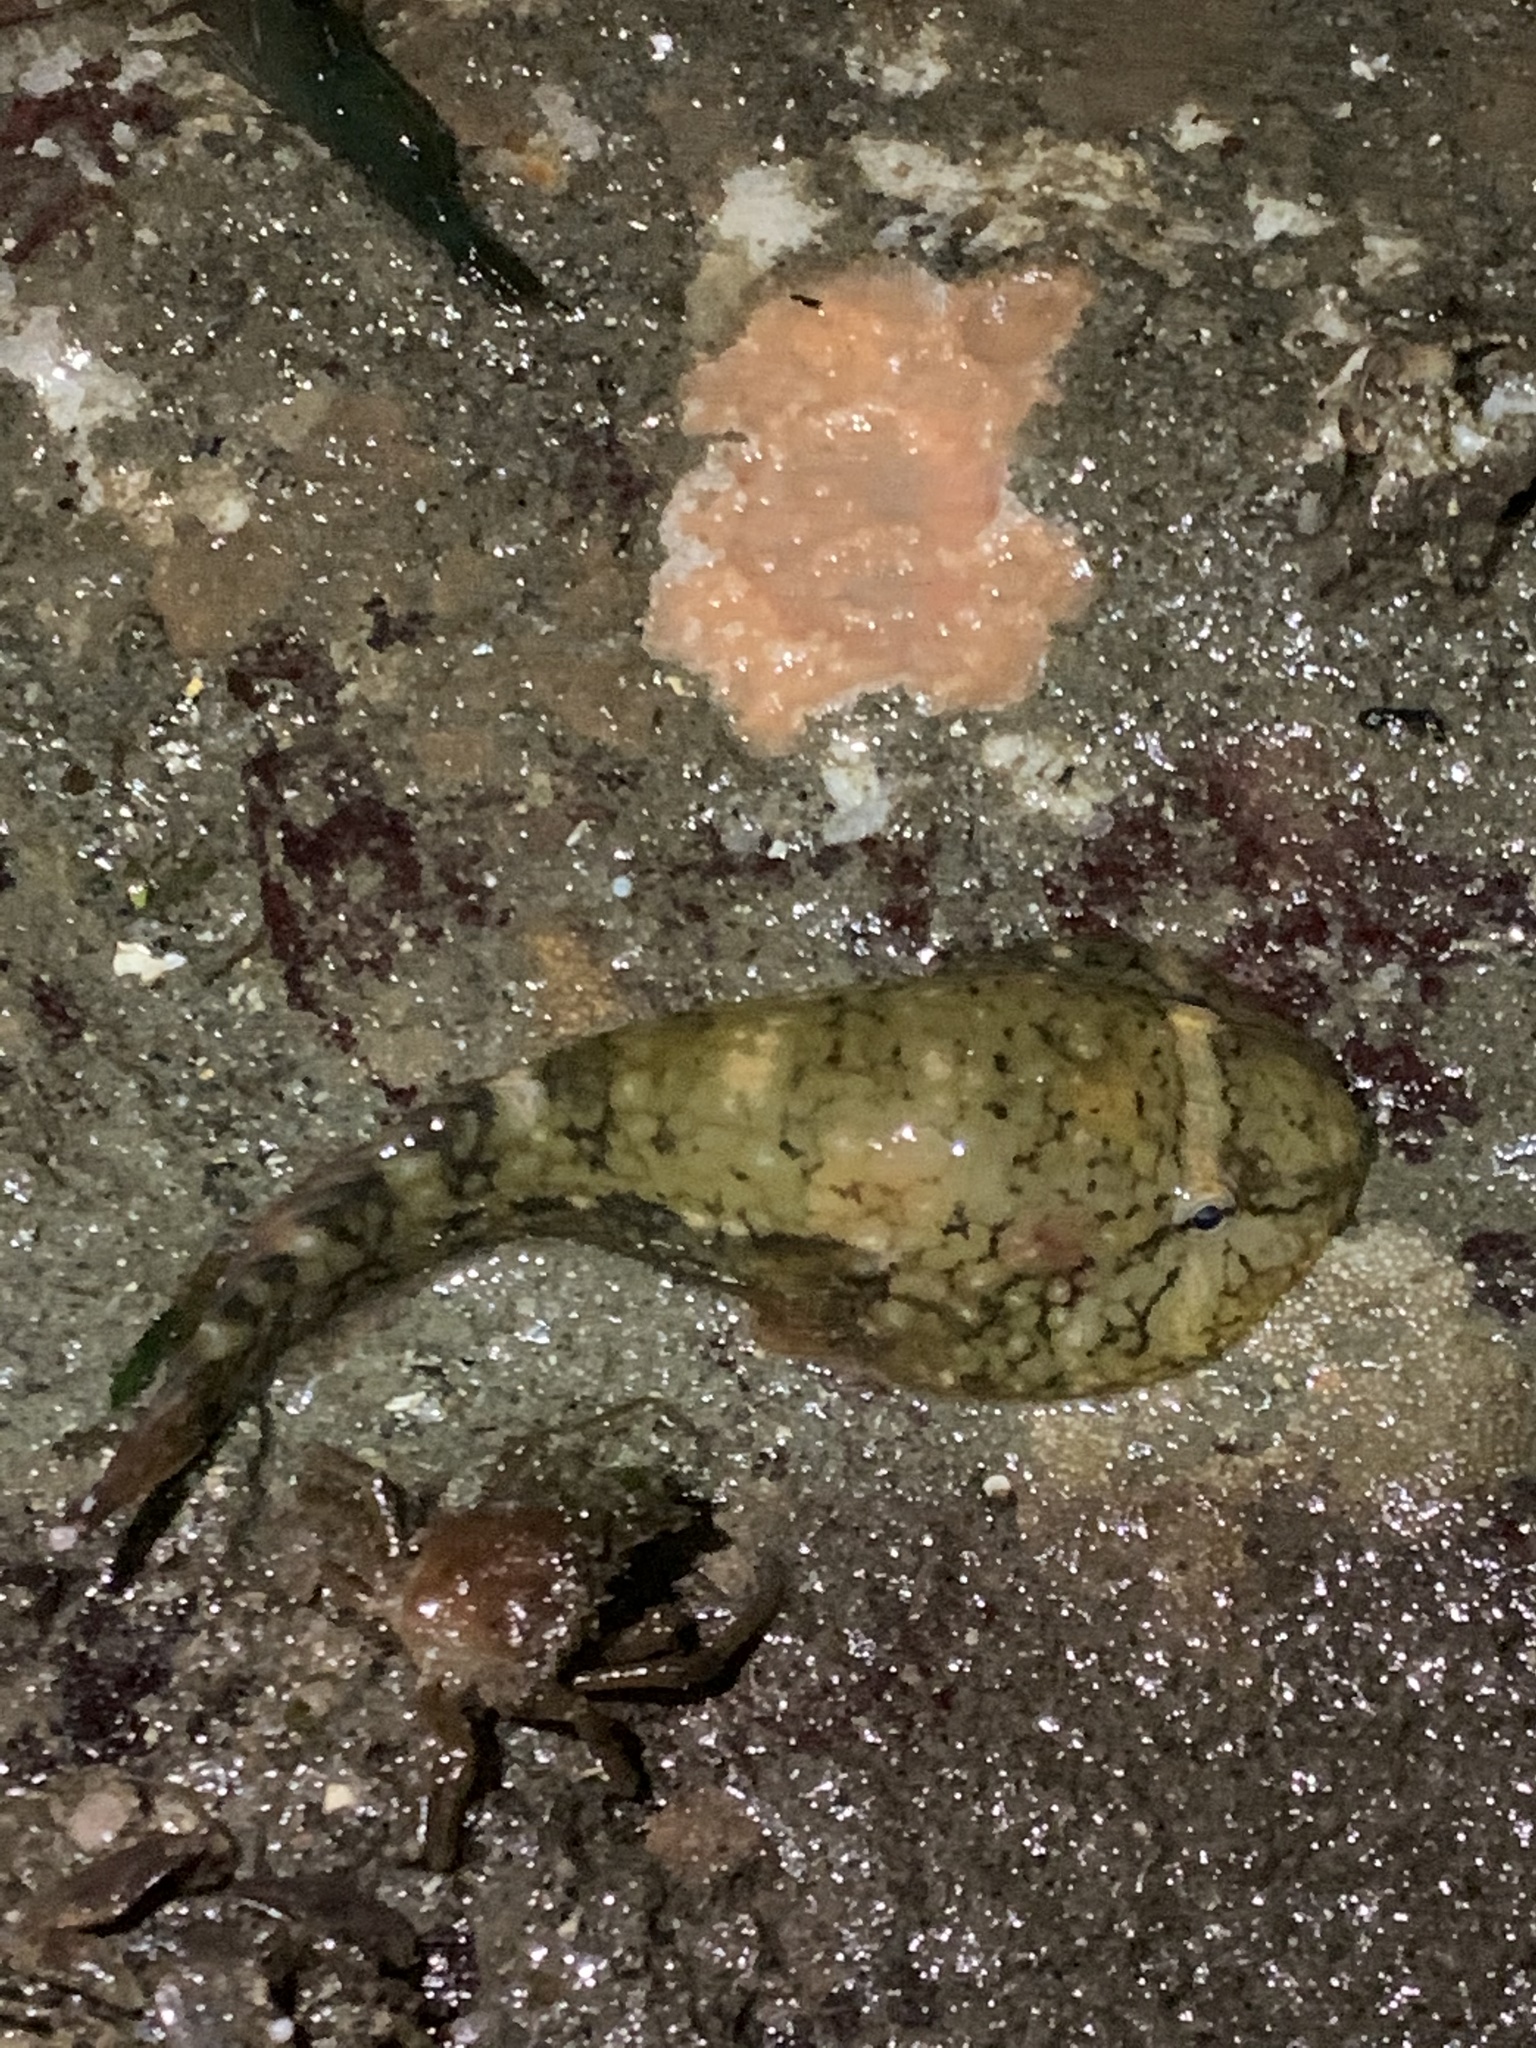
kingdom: Animalia
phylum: Chordata
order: Gobiesociformes
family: Gobiesocidae
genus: Gobiesox
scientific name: Gobiesox maeandricus
